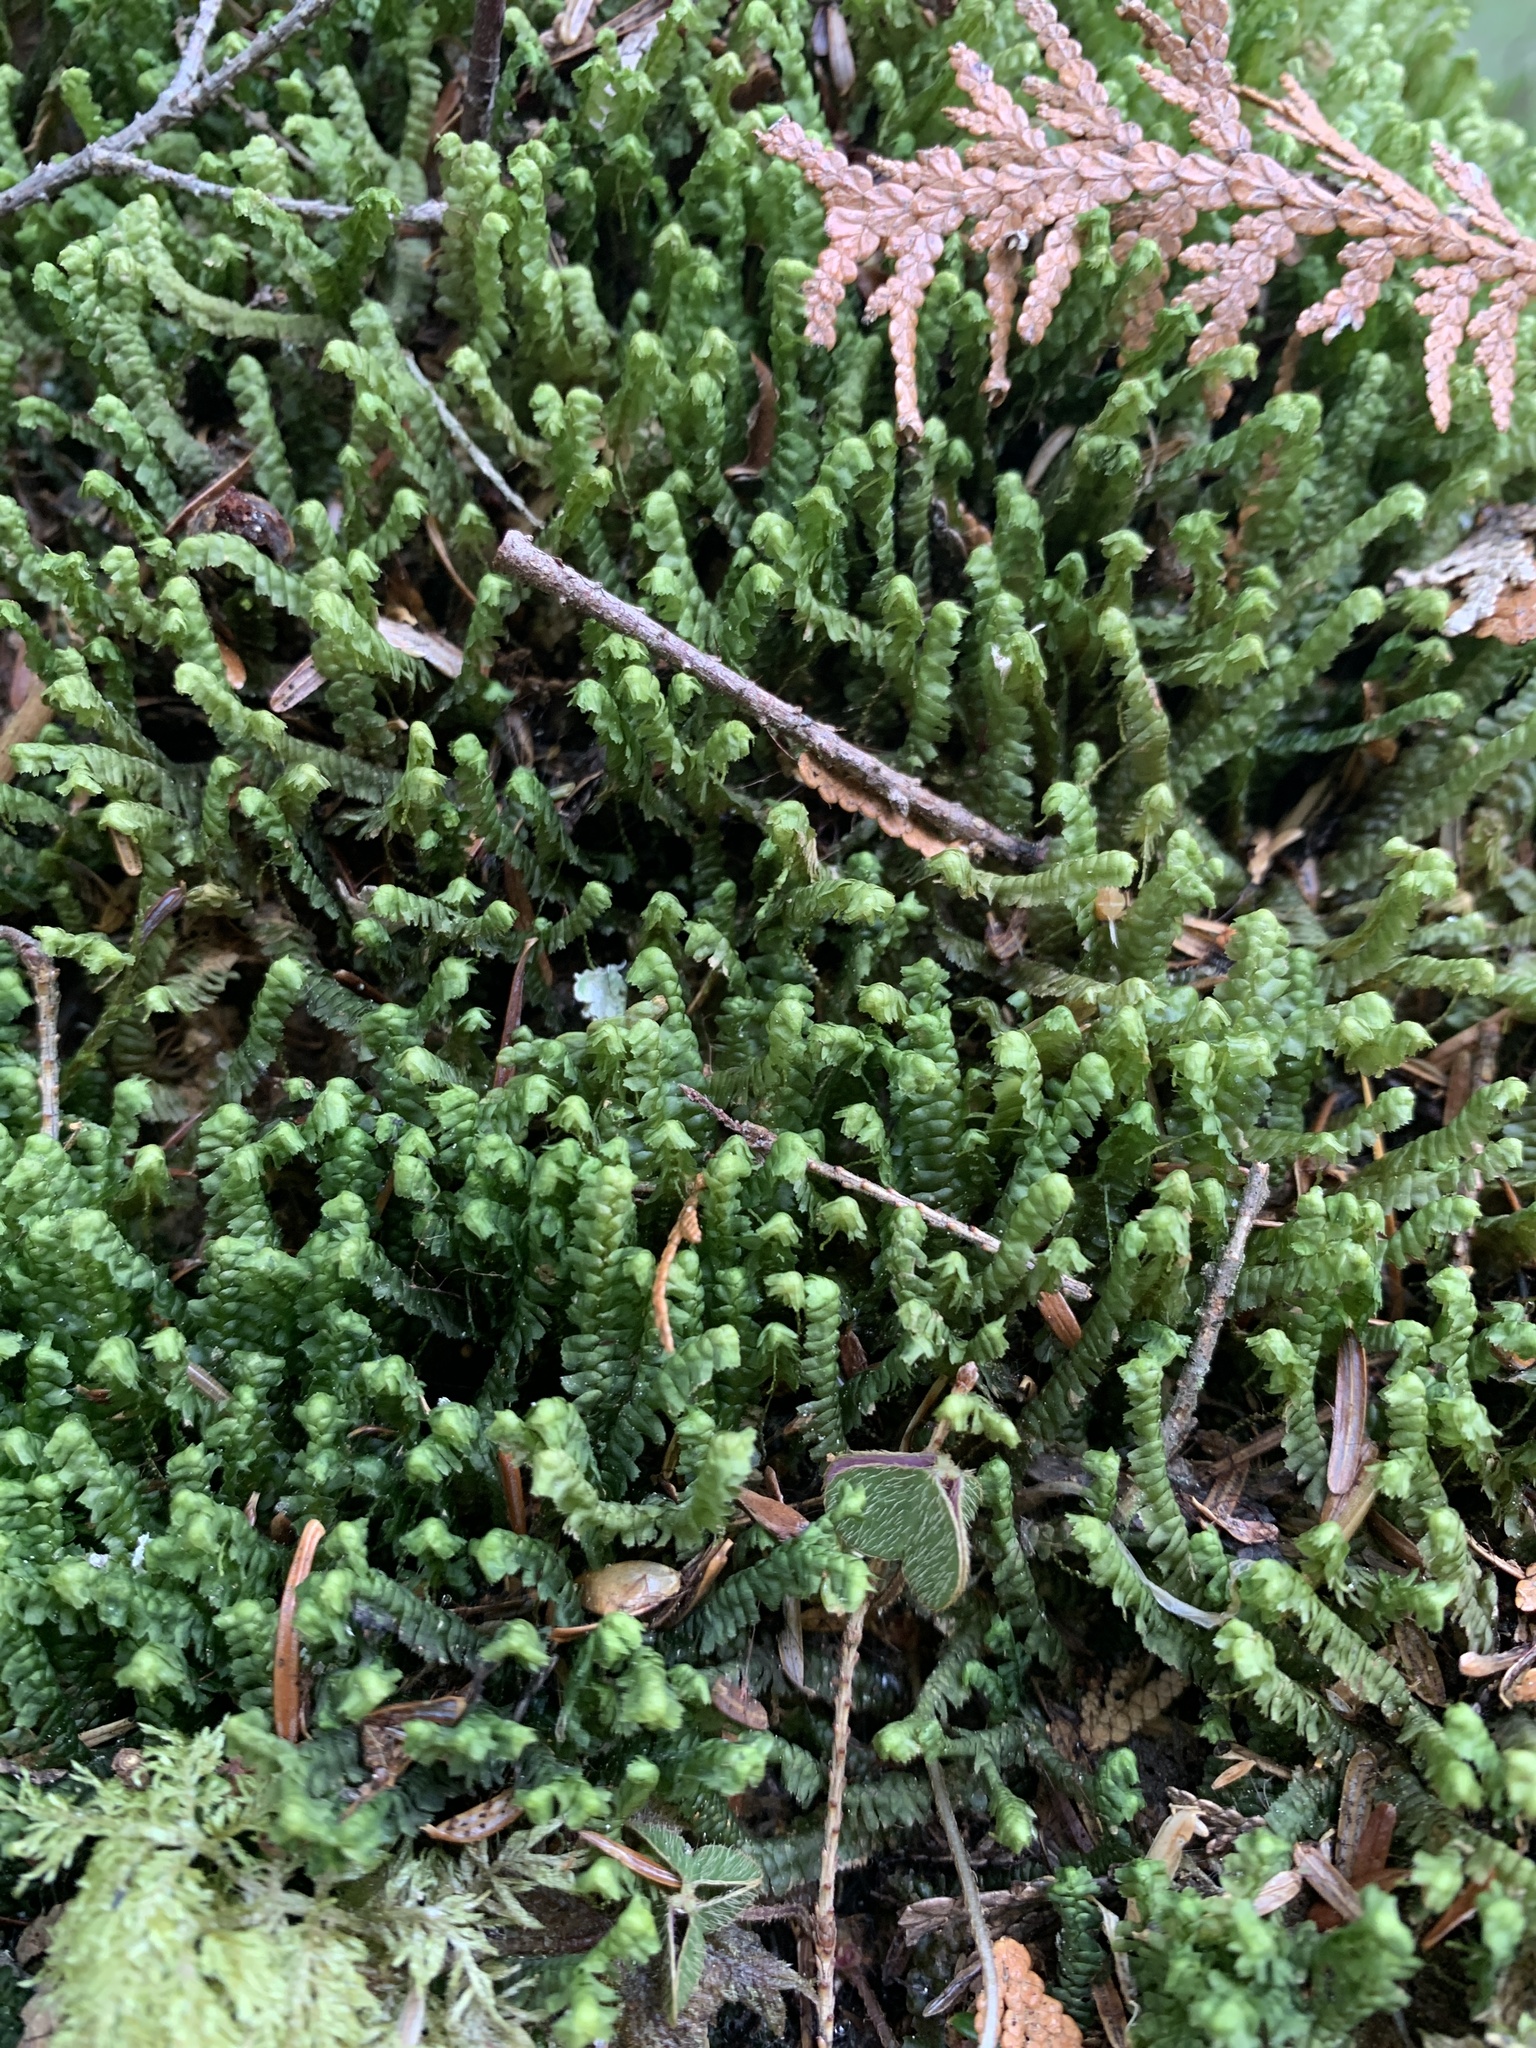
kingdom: Plantae
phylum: Marchantiophyta
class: Jungermanniopsida
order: Jungermanniales
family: Lepidoziaceae
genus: Bazzania
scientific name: Bazzania trilobata
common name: Three-lobed whipwort
